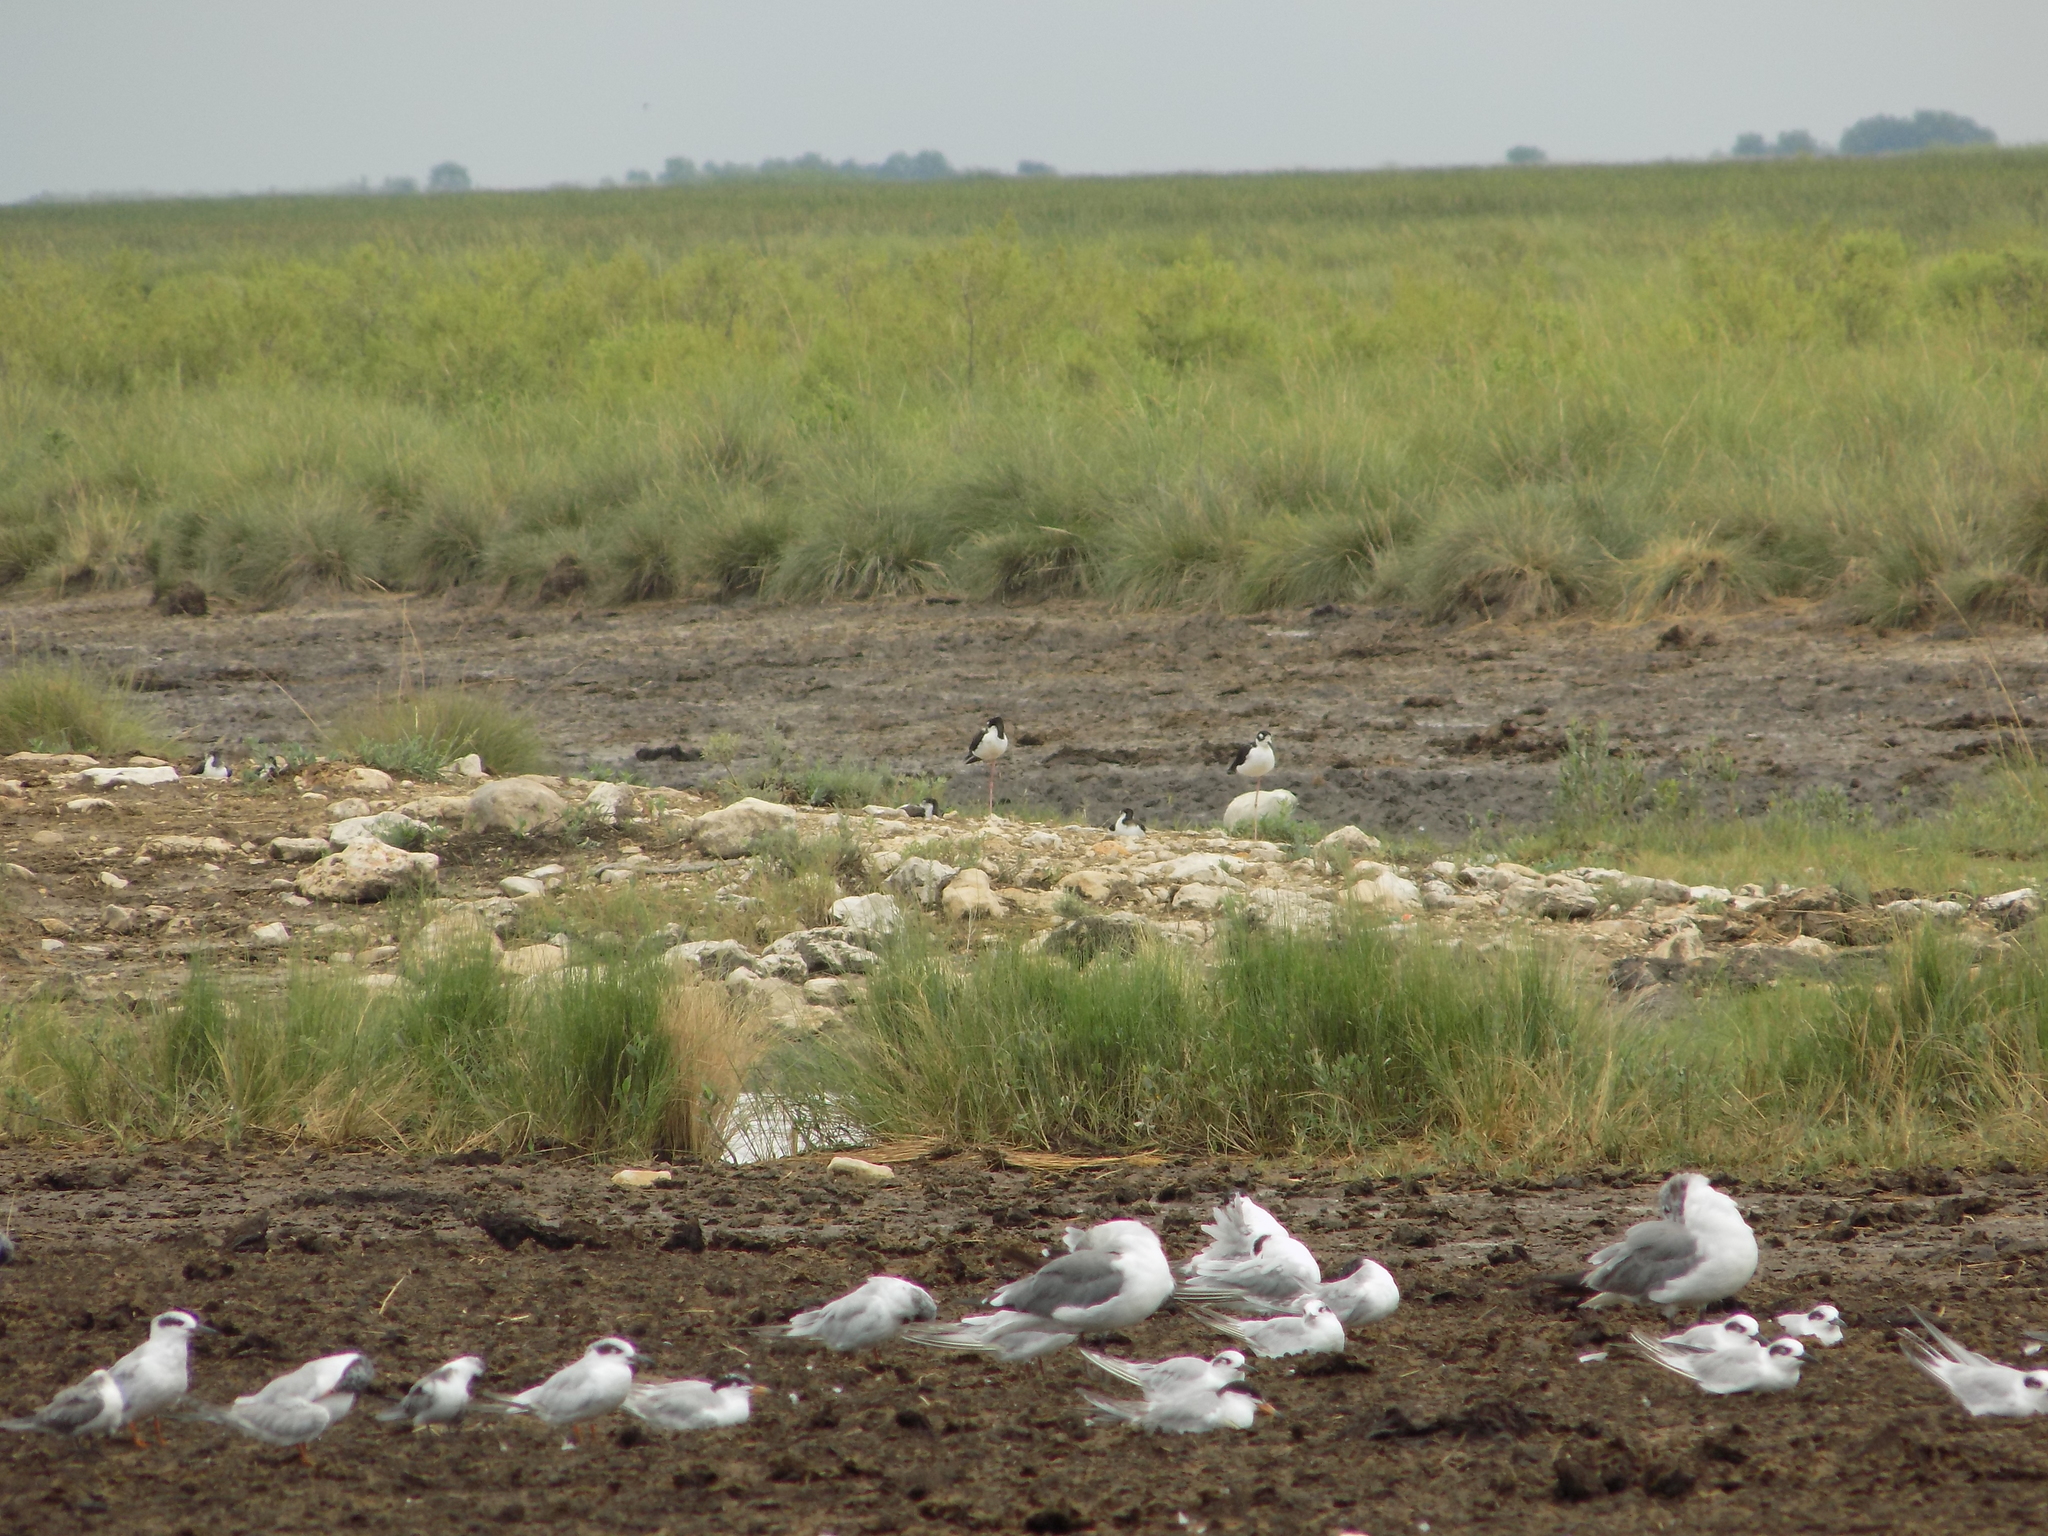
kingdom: Animalia
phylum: Chordata
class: Aves
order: Charadriiformes
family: Recurvirostridae
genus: Himantopus
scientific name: Himantopus mexicanus
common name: Black-necked stilt
